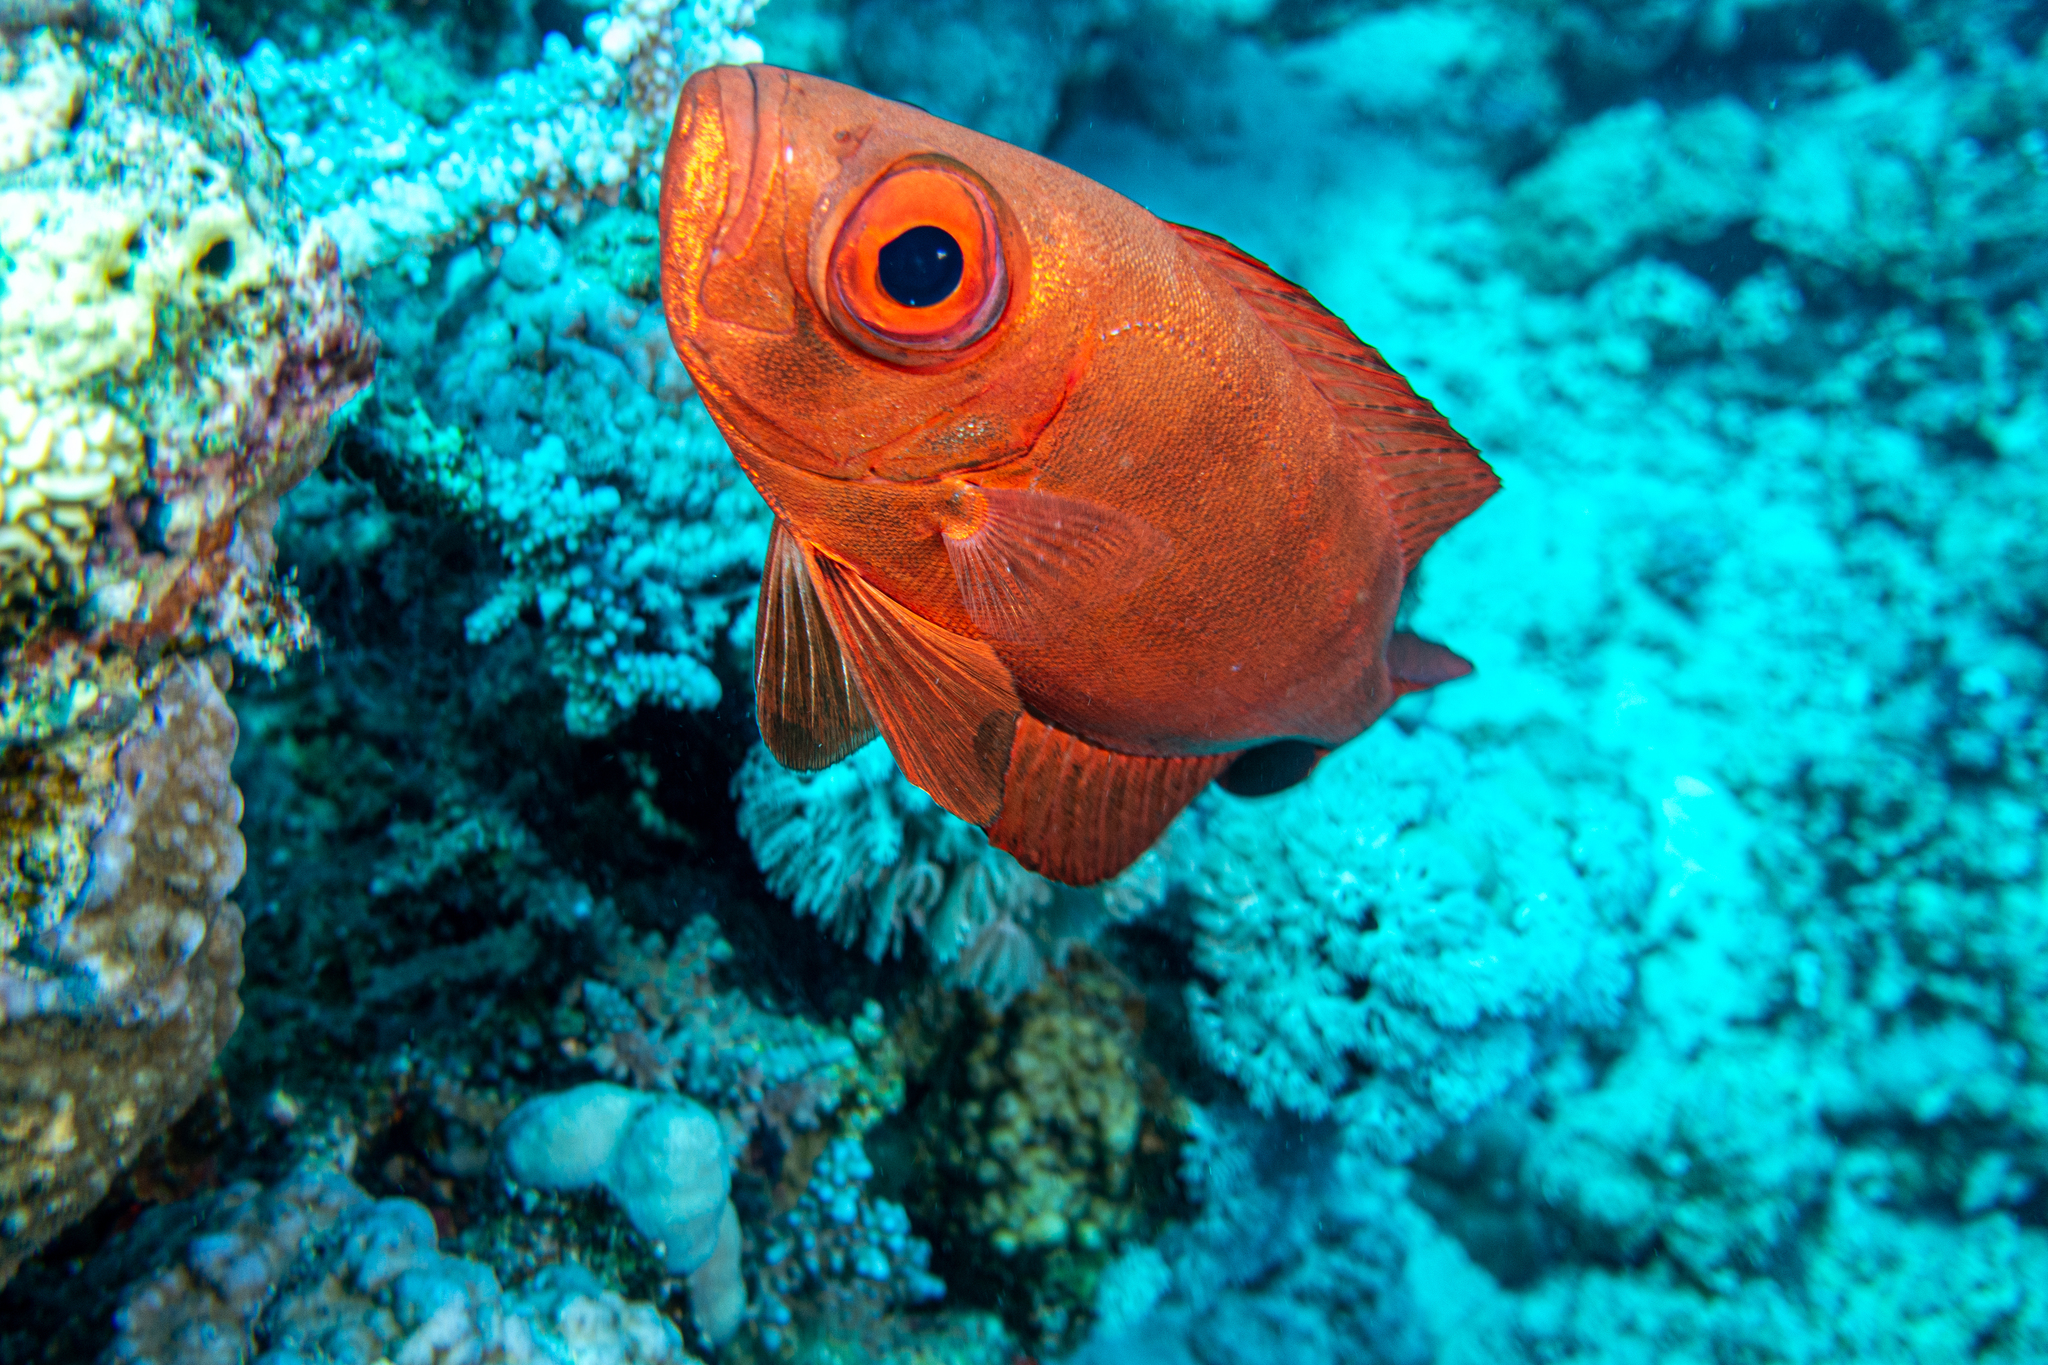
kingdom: Animalia
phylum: Chordata
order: Perciformes
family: Priacanthidae
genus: Priacanthus
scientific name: Priacanthus hamrur
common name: Moontail bullseye
